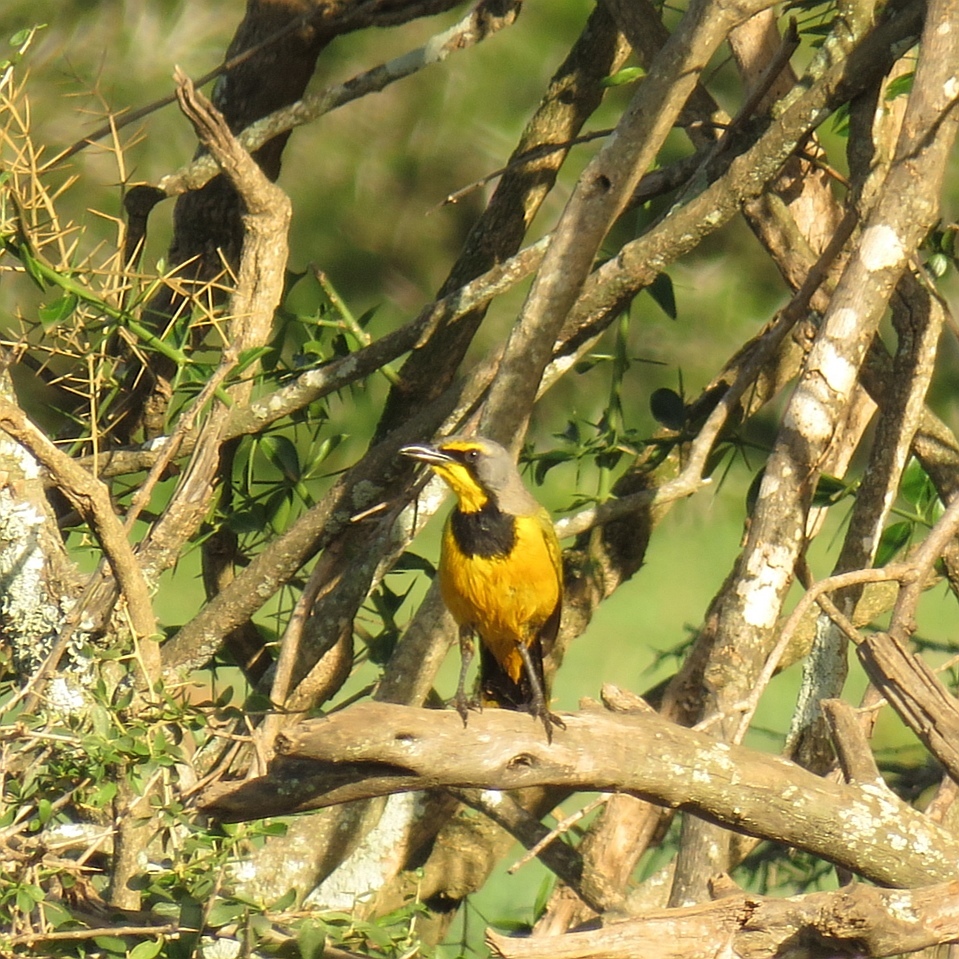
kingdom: Animalia
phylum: Chordata
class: Aves
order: Passeriformes
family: Malaconotidae
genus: Telophorus
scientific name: Telophorus zeylonus
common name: Bokmakierie
